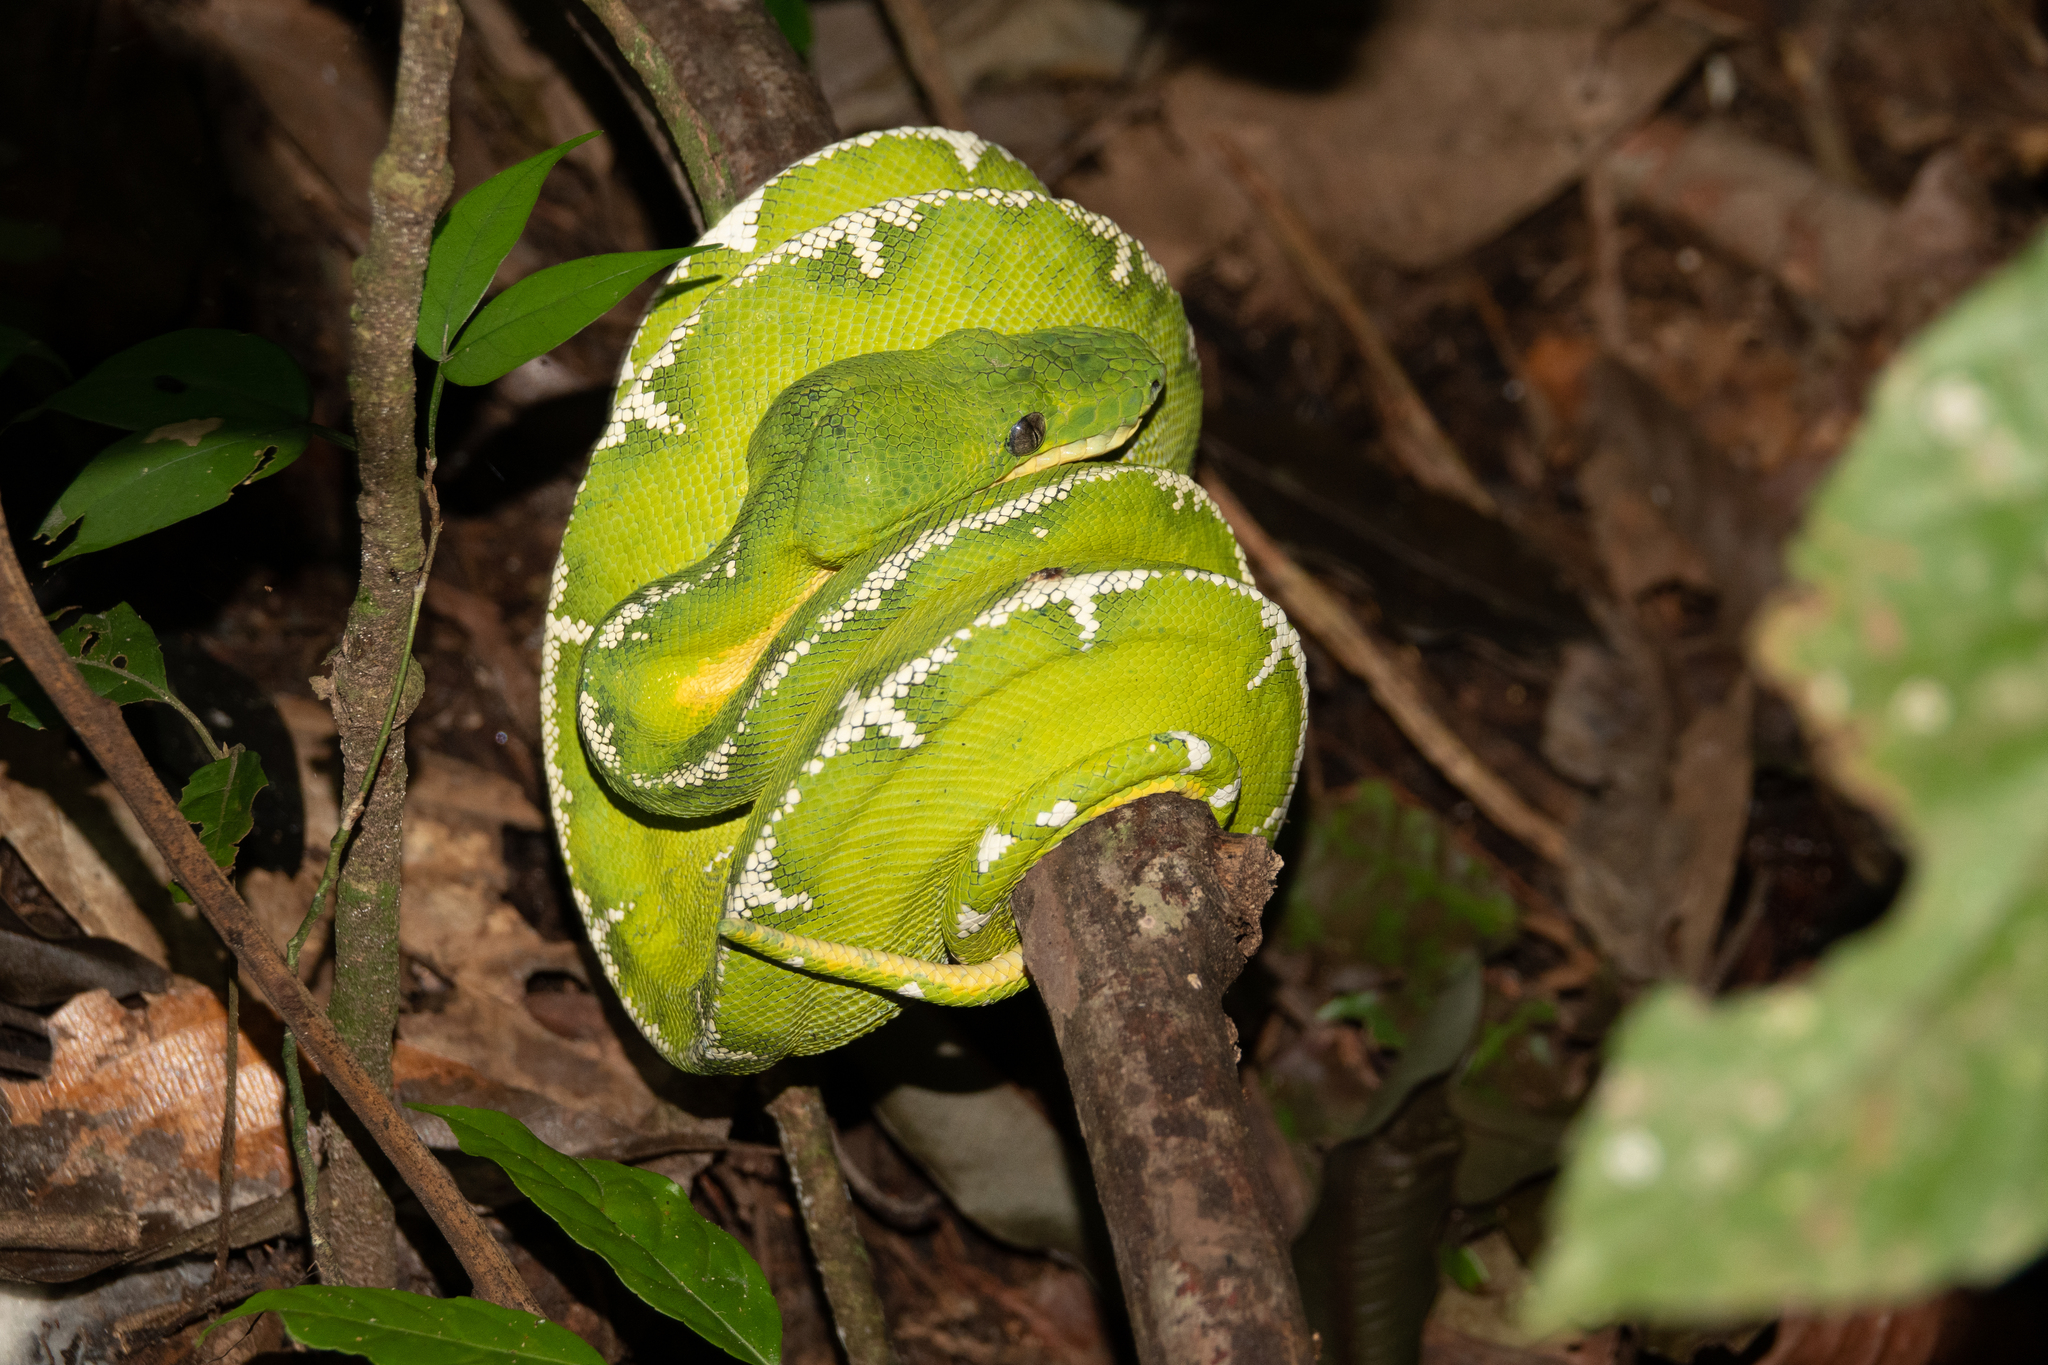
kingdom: Animalia
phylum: Chordata
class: Squamata
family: Boidae
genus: Corallus
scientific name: Corallus batesii
